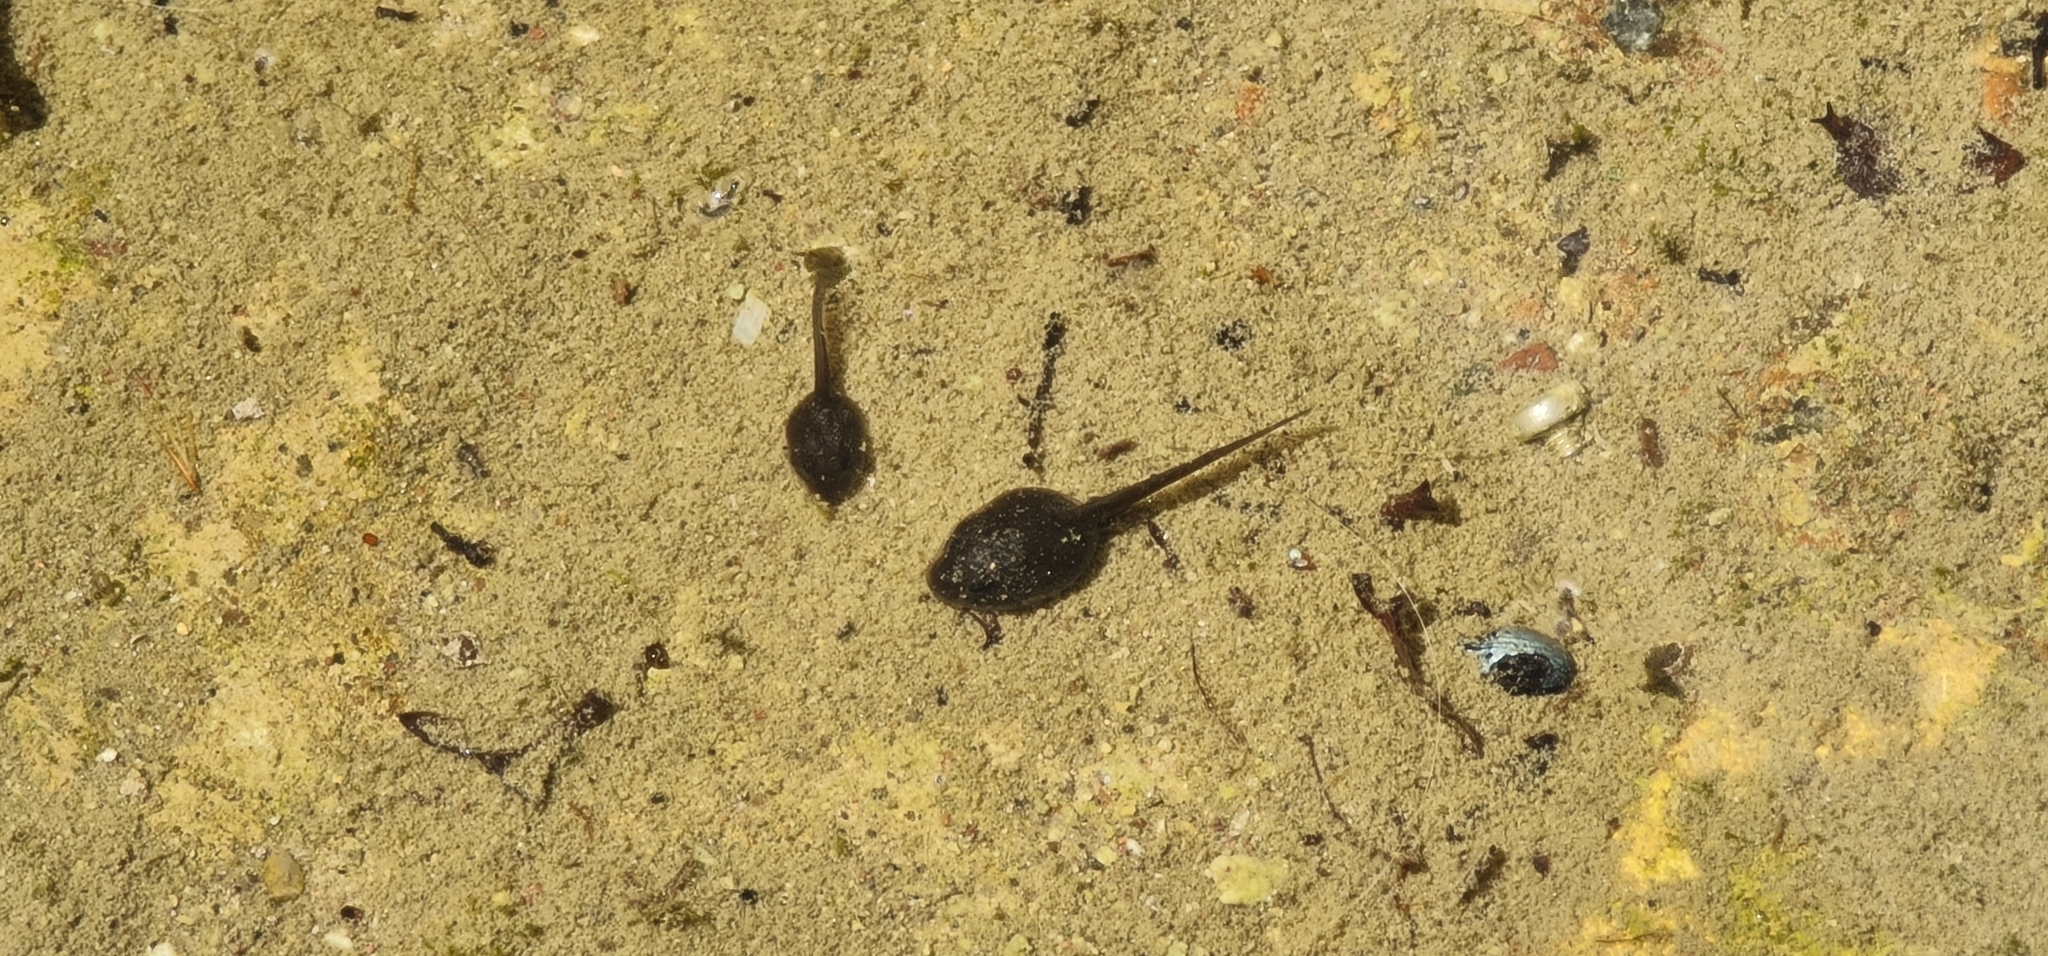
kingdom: Animalia
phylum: Chordata
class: Amphibia
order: Anura
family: Bufonidae
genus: Bufotes
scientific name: Bufotes viridis
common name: European green toad
